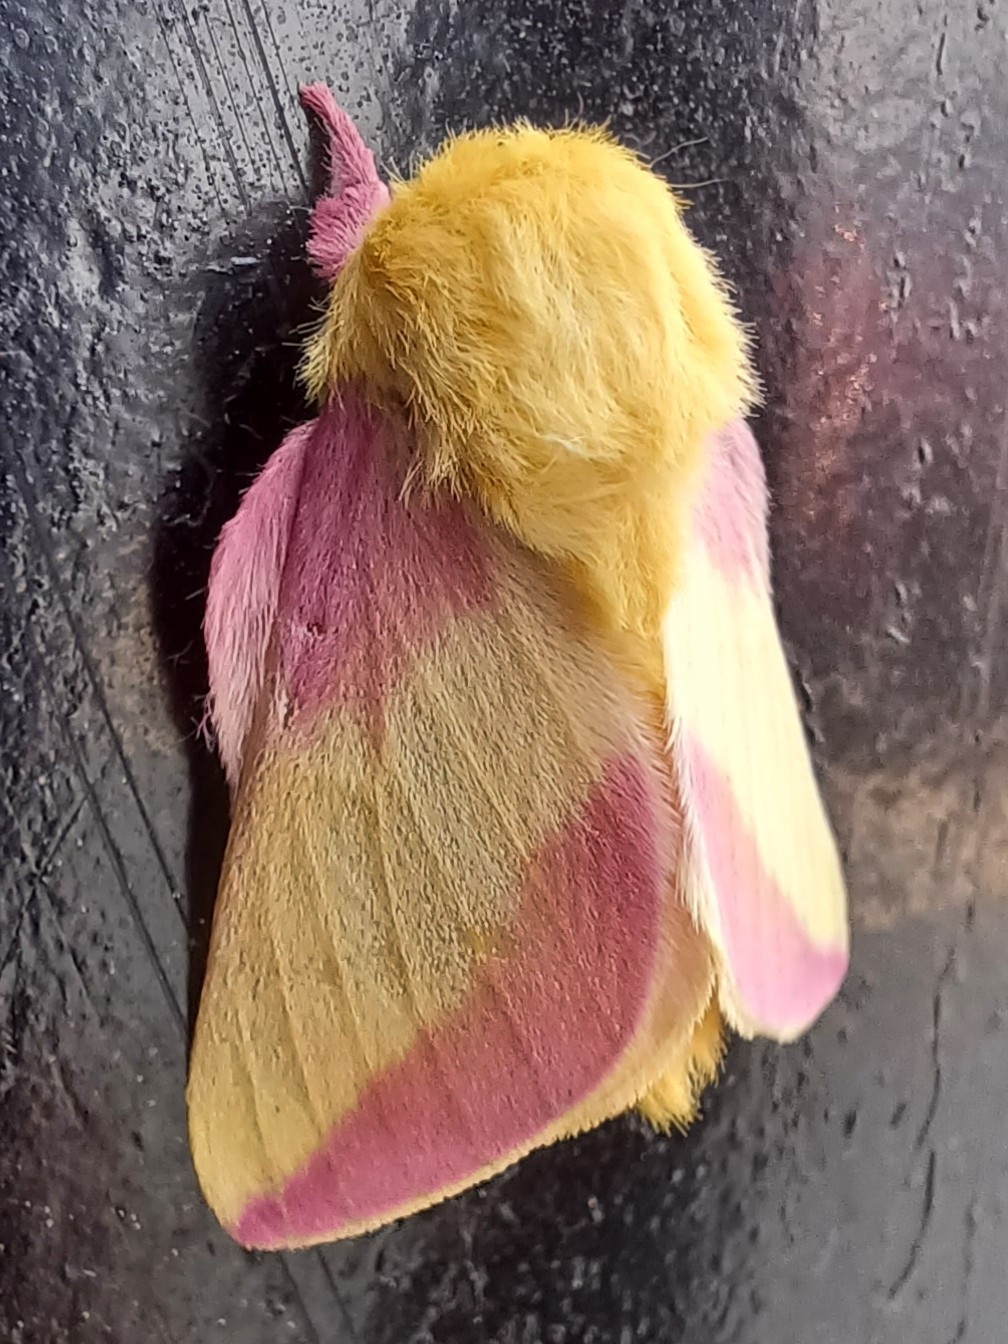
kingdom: Animalia
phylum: Arthropoda
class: Insecta
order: Lepidoptera
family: Saturniidae
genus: Dryocampa
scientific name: Dryocampa rubicunda
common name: Rosy maple moth
